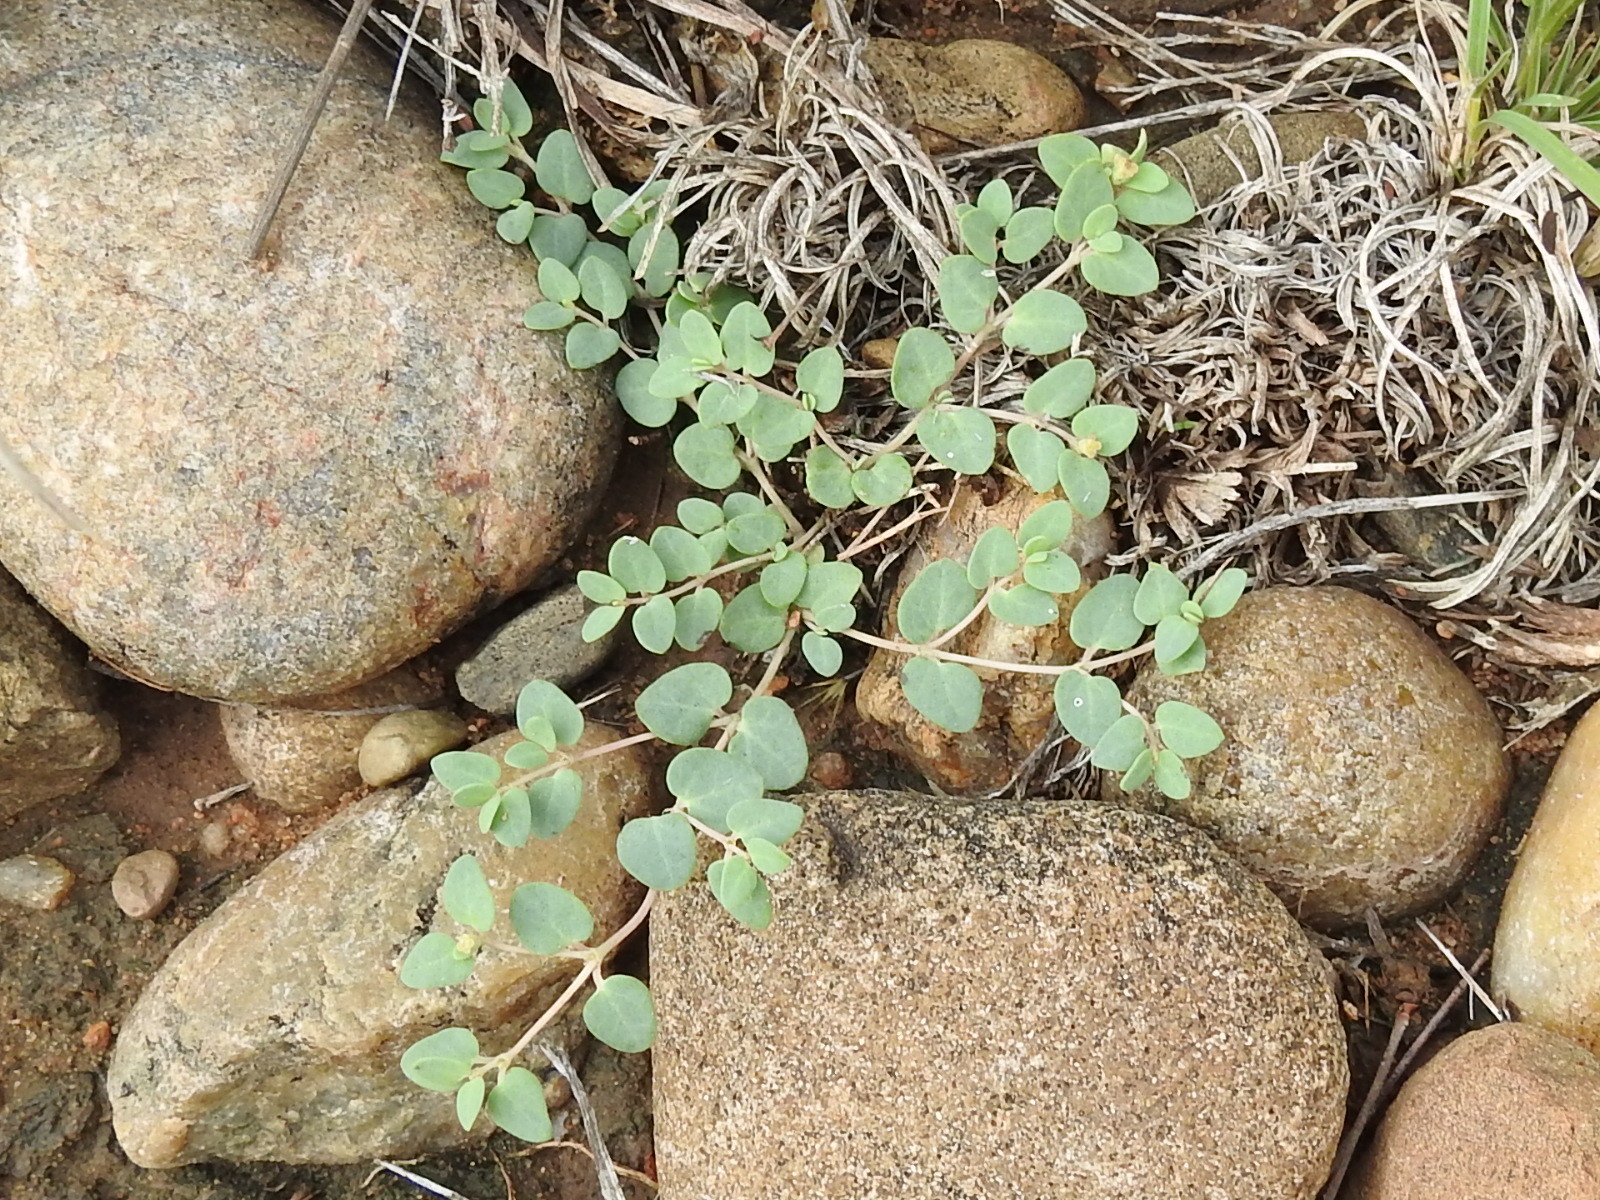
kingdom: Plantae
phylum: Tracheophyta
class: Magnoliopsida
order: Malpighiales
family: Euphorbiaceae
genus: Euphorbia
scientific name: Euphorbia fendleri
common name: Fendler's euphorbia
